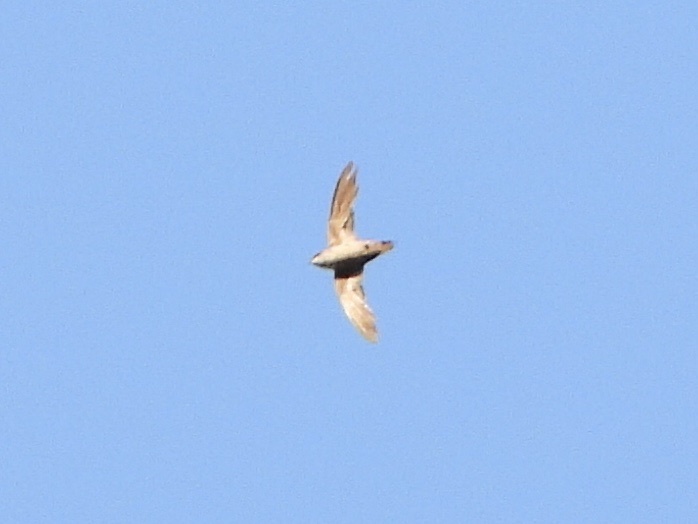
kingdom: Animalia
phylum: Chordata
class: Aves
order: Apodiformes
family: Apodidae
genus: Chaetura
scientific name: Chaetura vauxi
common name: Vaux's swift
